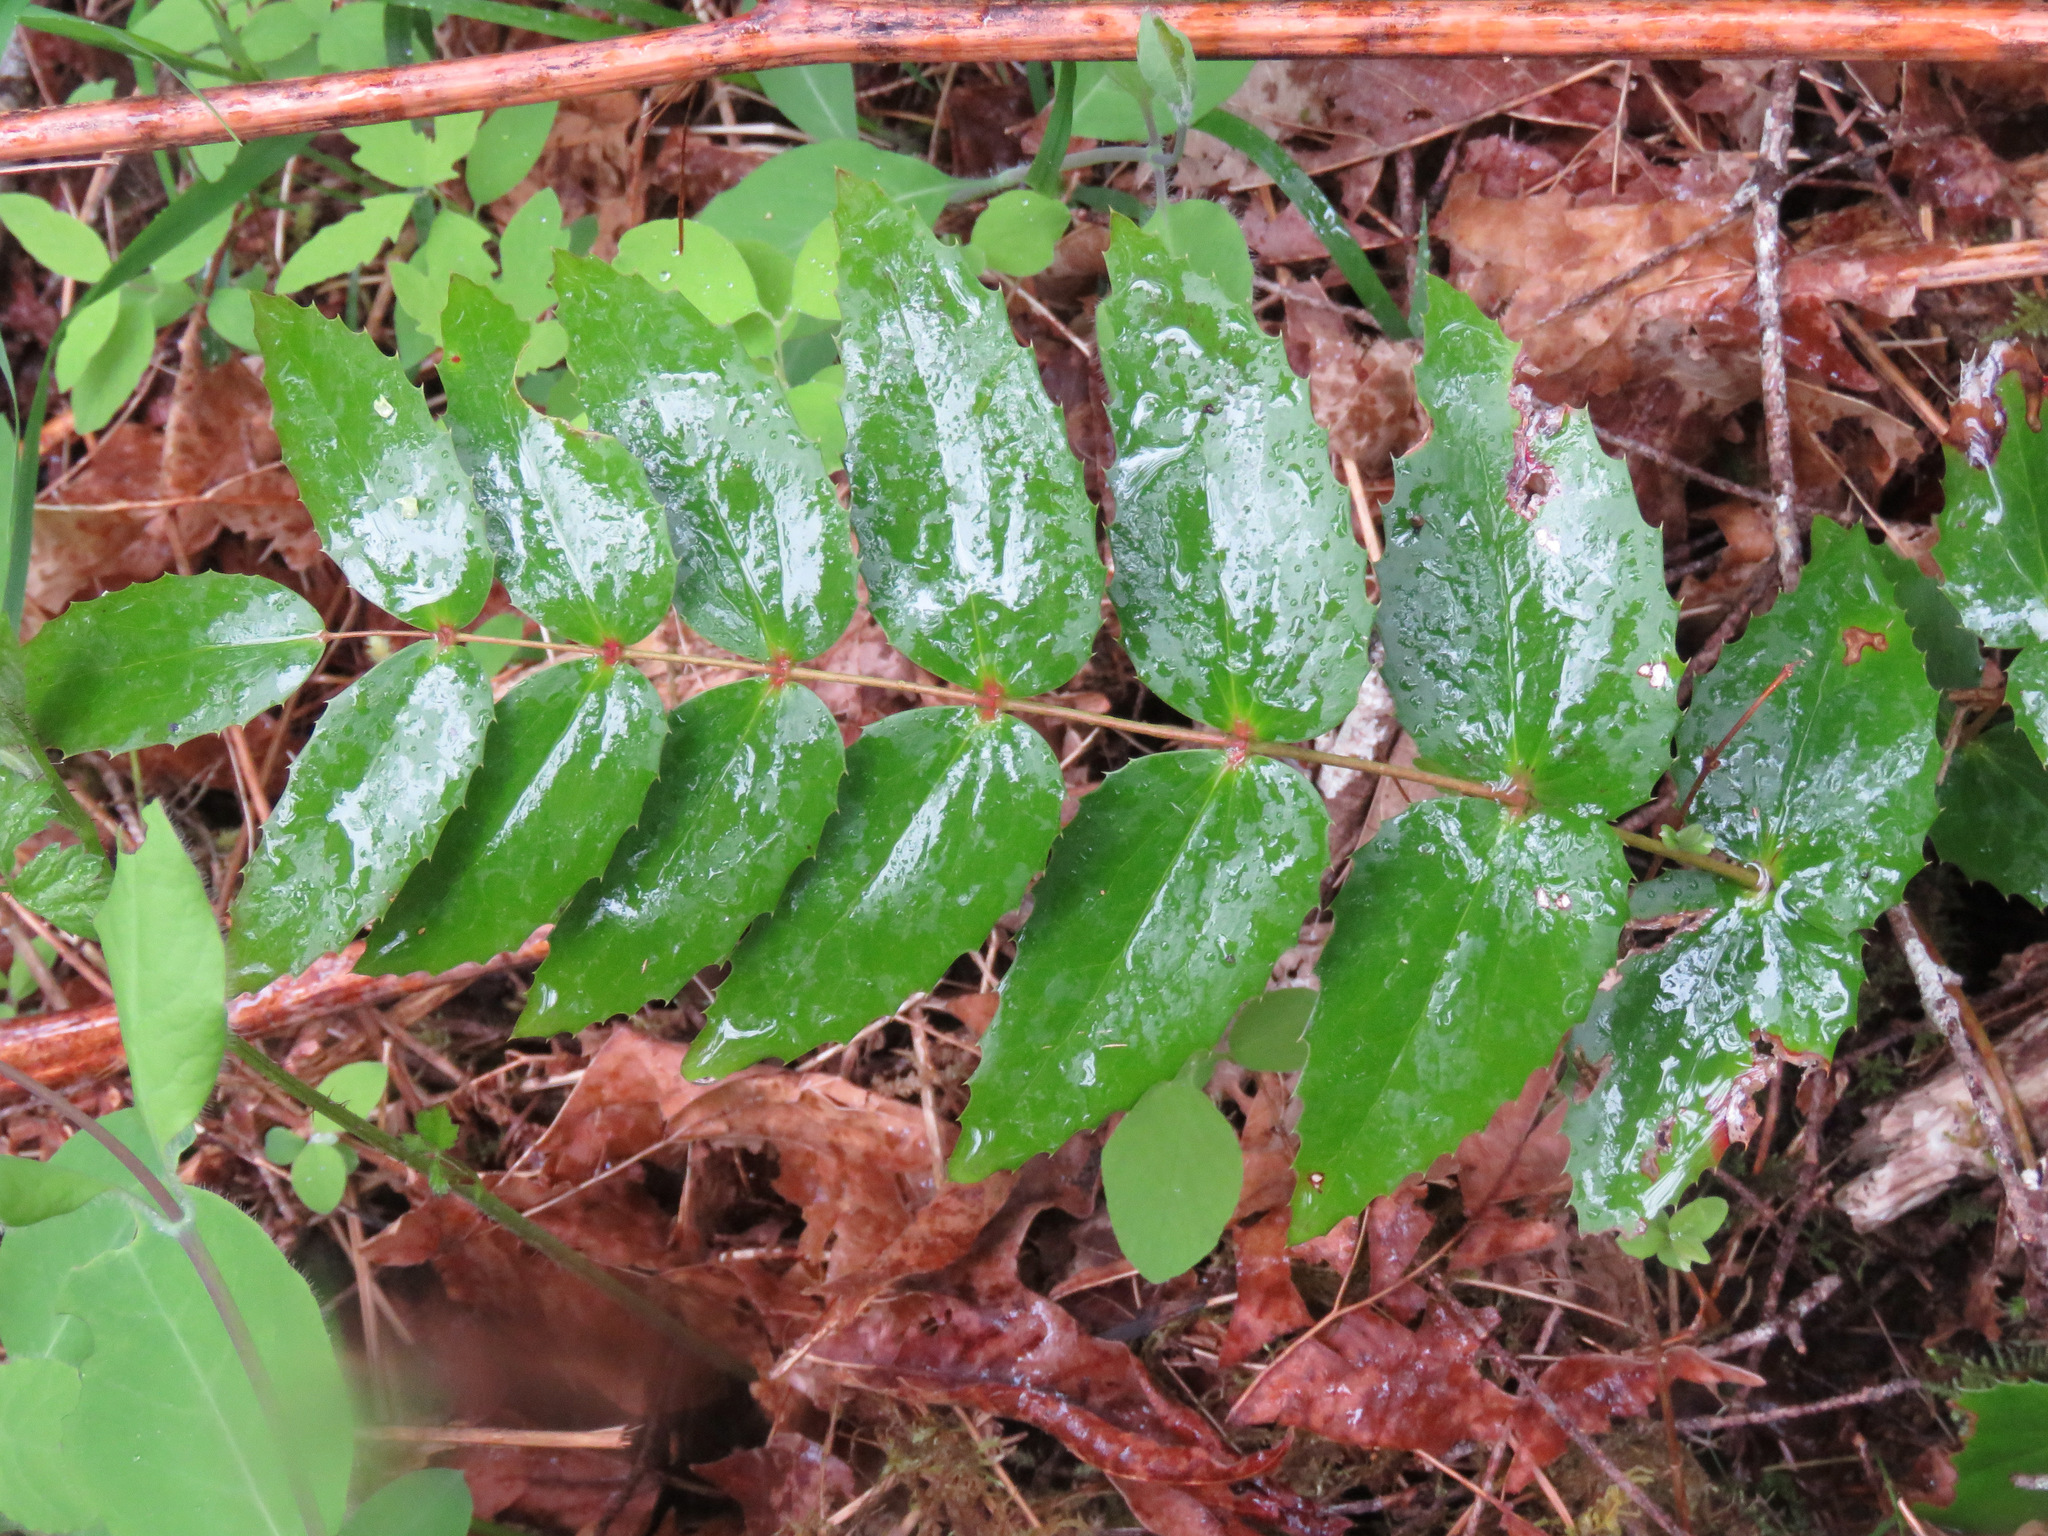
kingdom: Plantae
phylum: Tracheophyta
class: Magnoliopsida
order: Ranunculales
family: Berberidaceae
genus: Mahonia
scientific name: Mahonia nervosa
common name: Cascade oregon-grape
